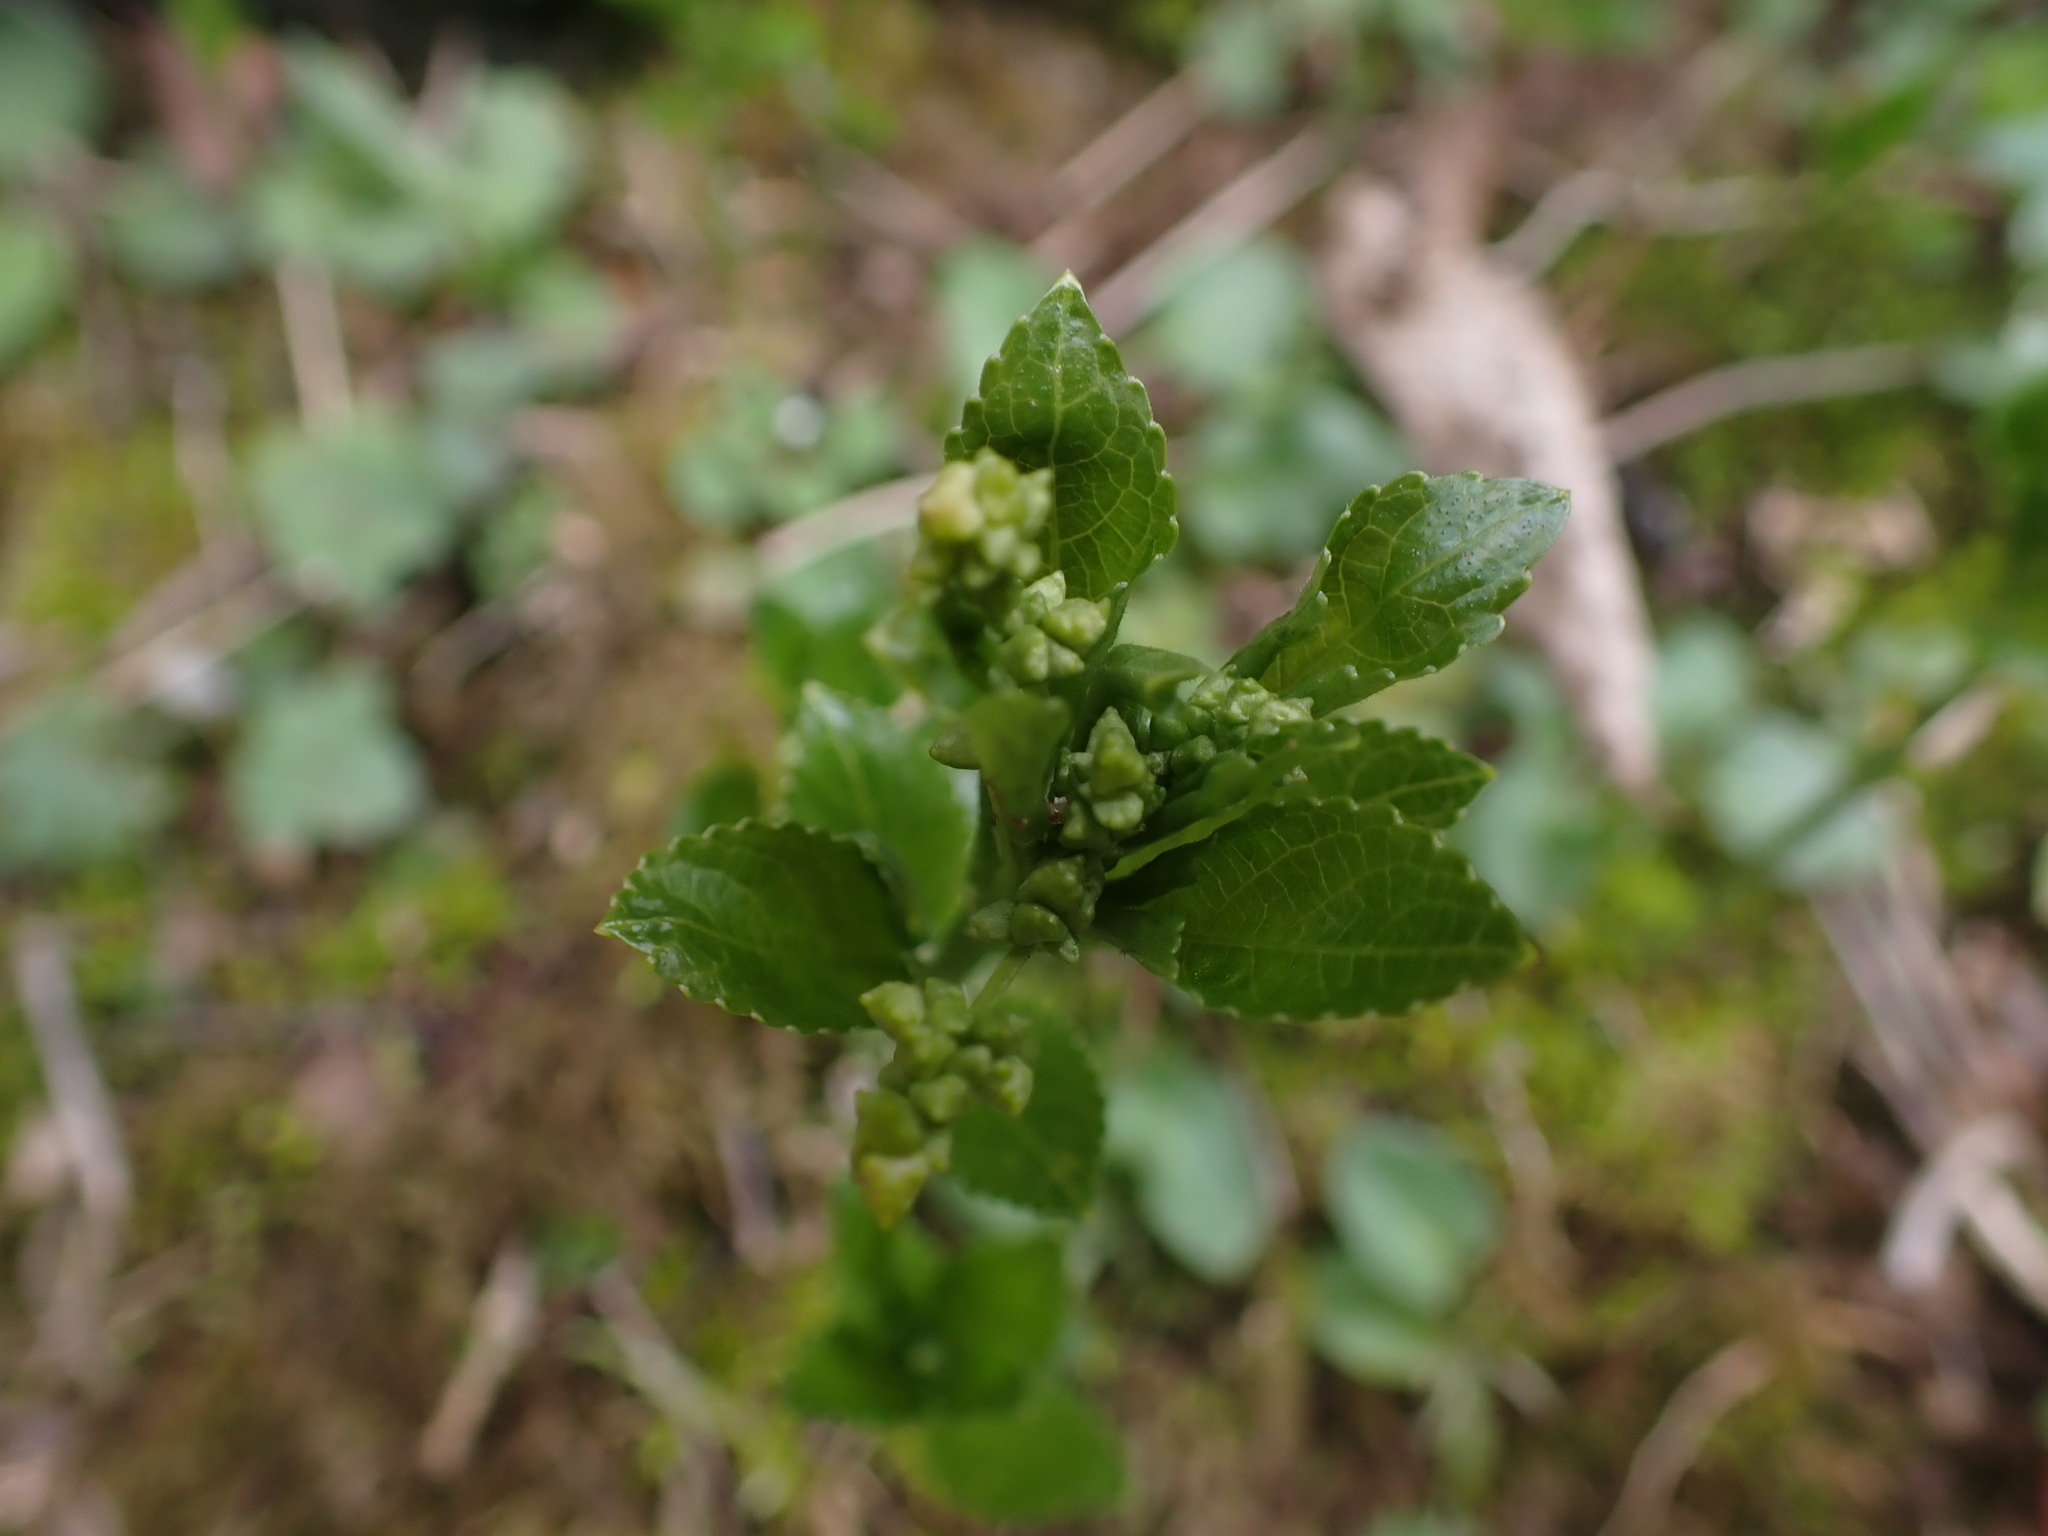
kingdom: Plantae
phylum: Tracheophyta
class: Magnoliopsida
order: Malpighiales
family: Euphorbiaceae
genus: Mercurialis
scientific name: Mercurialis perennis
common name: Dog mercury
